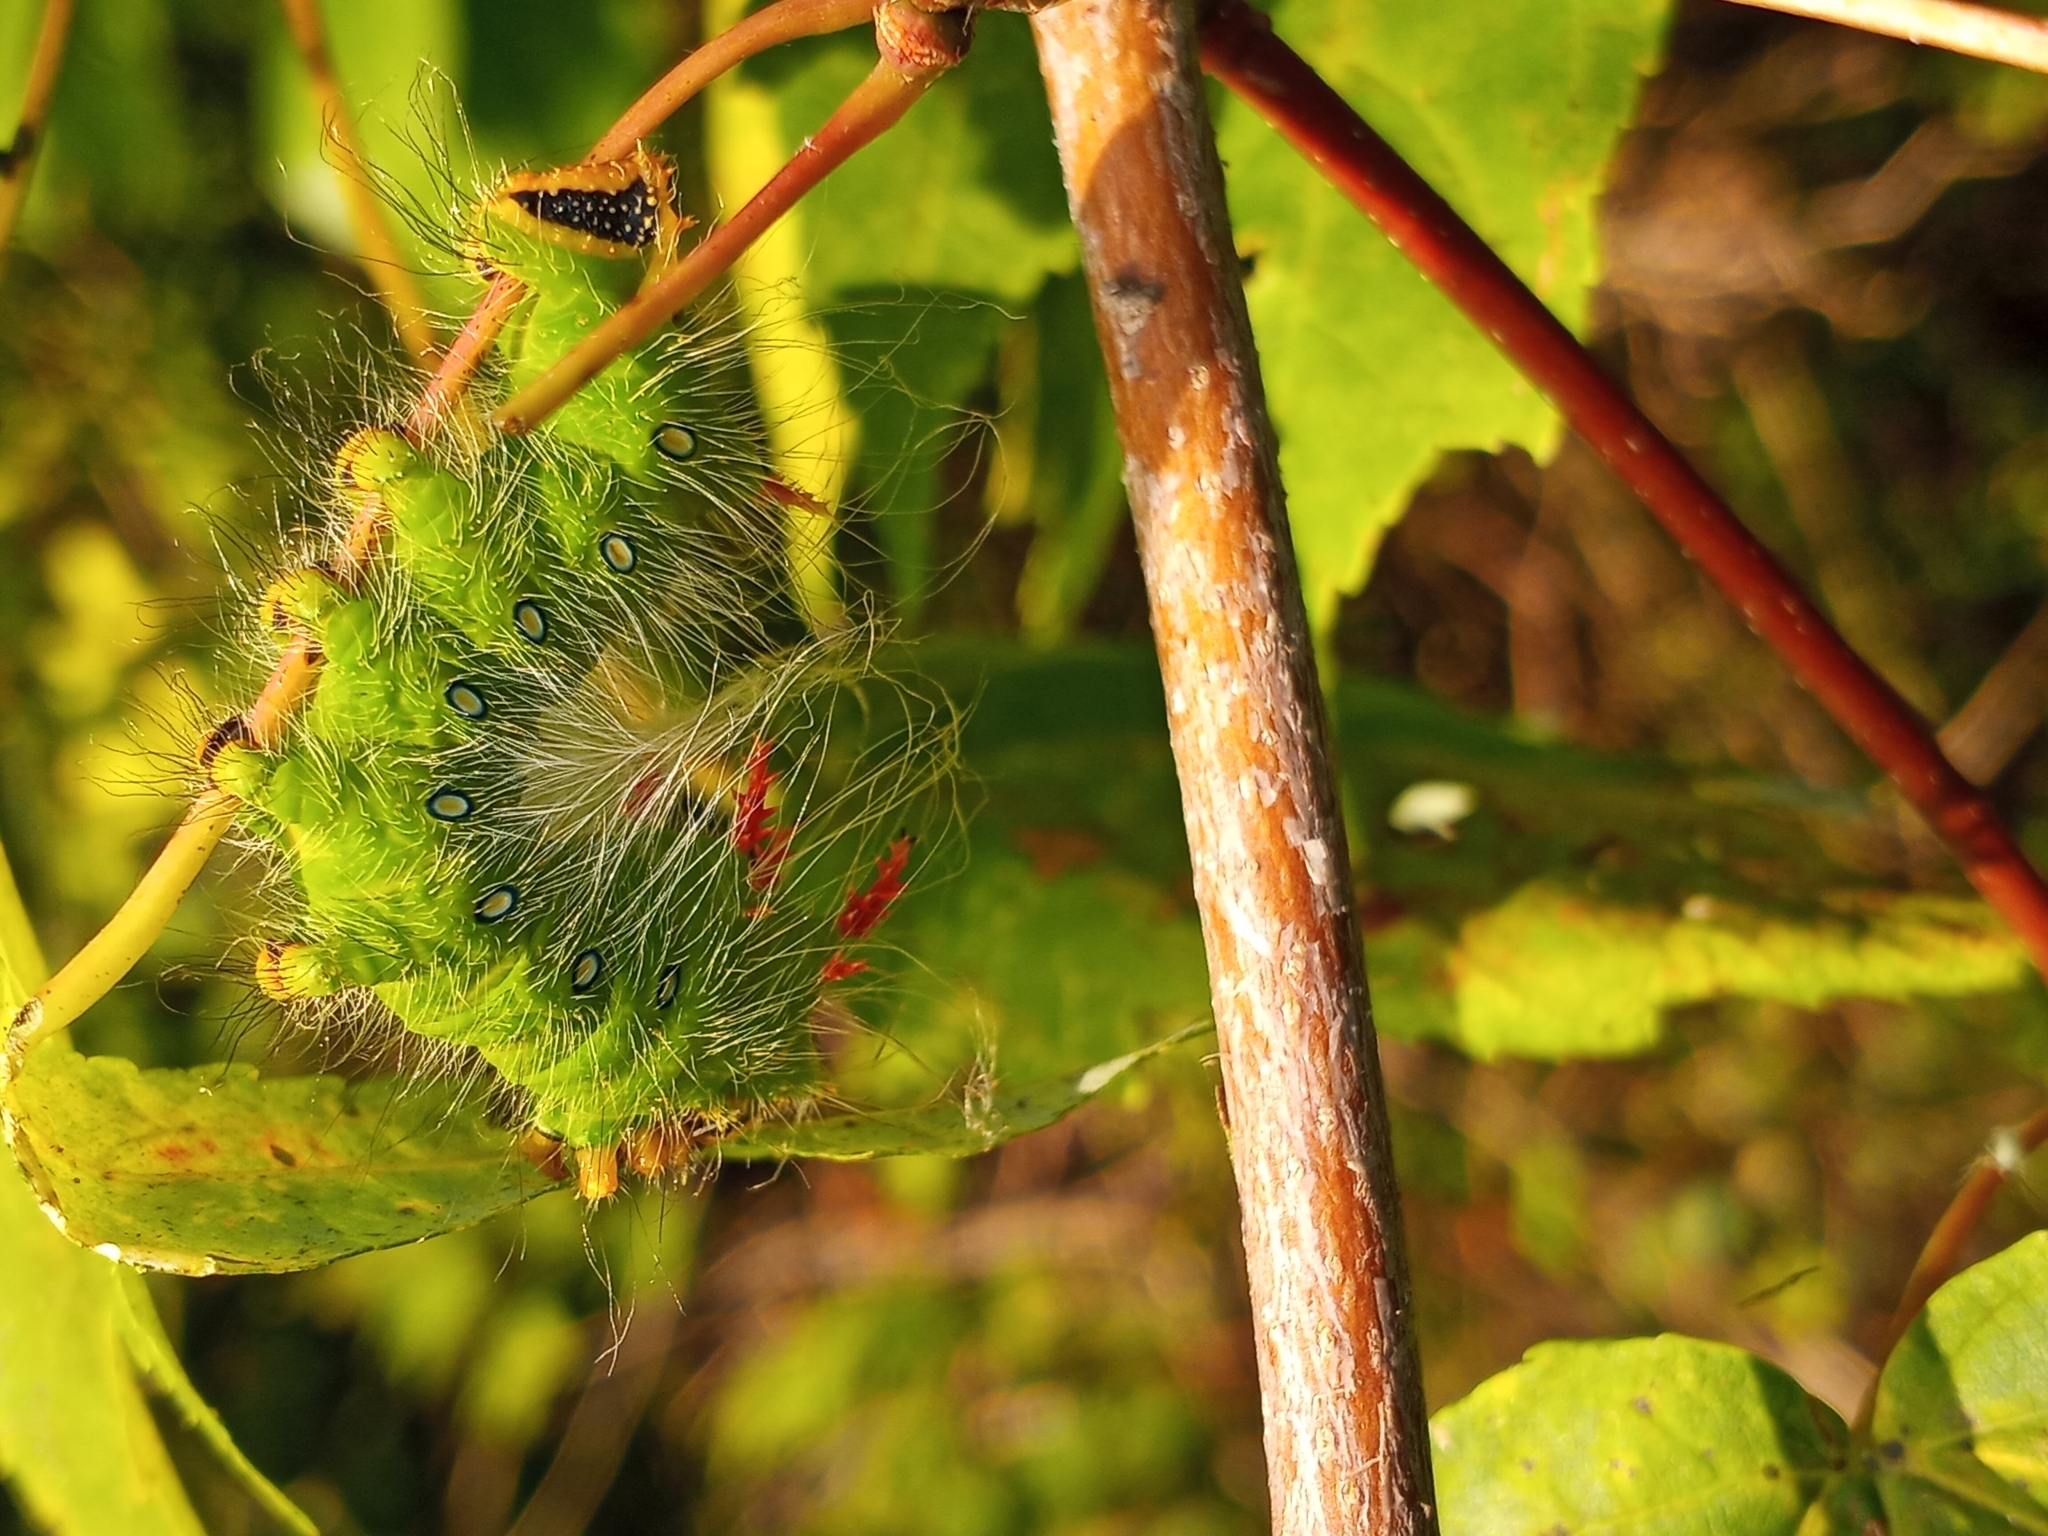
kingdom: Animalia
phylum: Arthropoda
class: Insecta
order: Lepidoptera
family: Saturniidae
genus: Eacles
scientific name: Eacles imperialis
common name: Imperial moth
